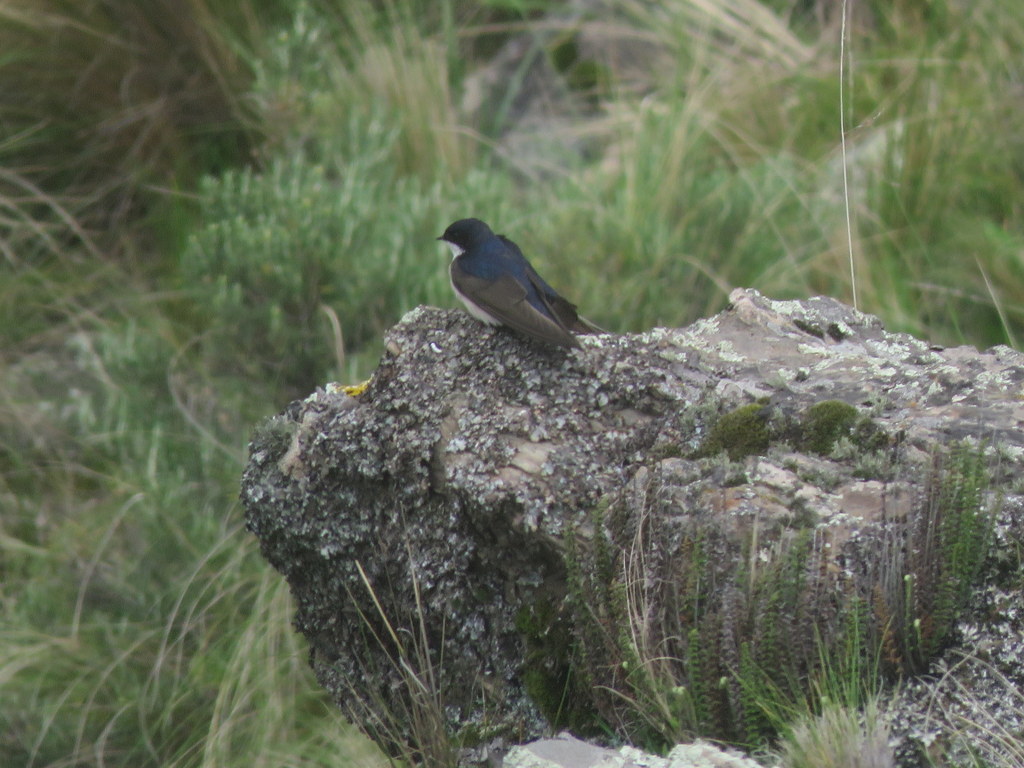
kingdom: Animalia
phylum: Chordata
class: Aves
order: Passeriformes
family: Hirundinidae
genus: Notiochelidon
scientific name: Notiochelidon cyanoleuca
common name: Blue-and-white swallow
